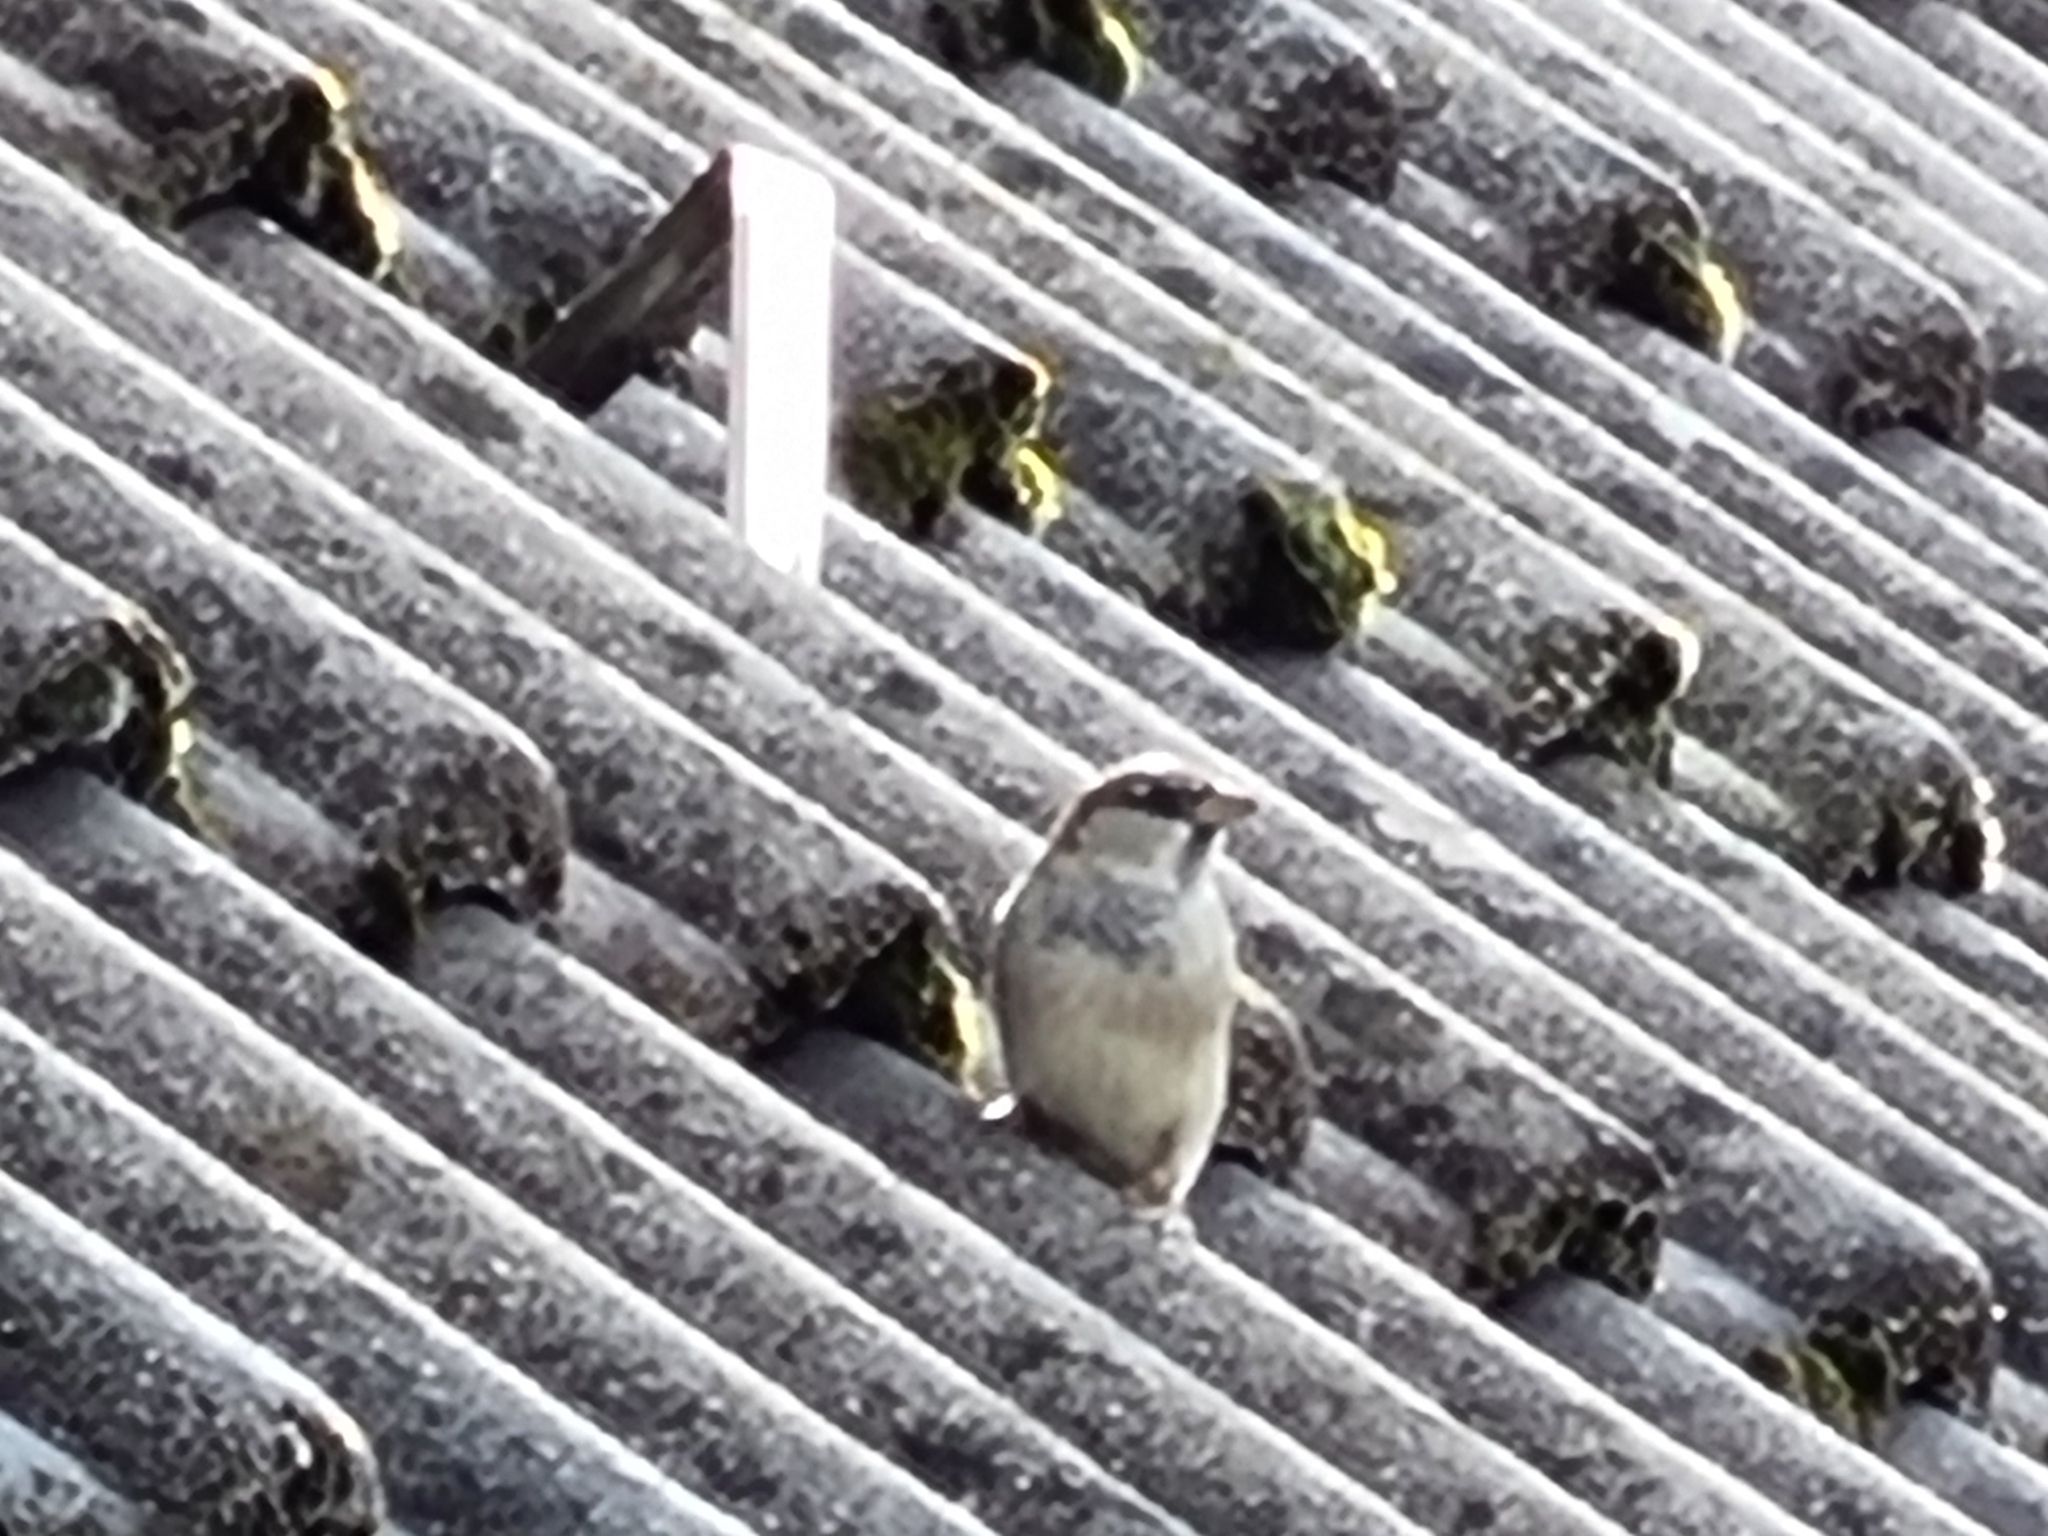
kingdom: Animalia
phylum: Chordata
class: Aves
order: Passeriformes
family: Passeridae
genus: Passer
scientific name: Passer domesticus
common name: House sparrow
